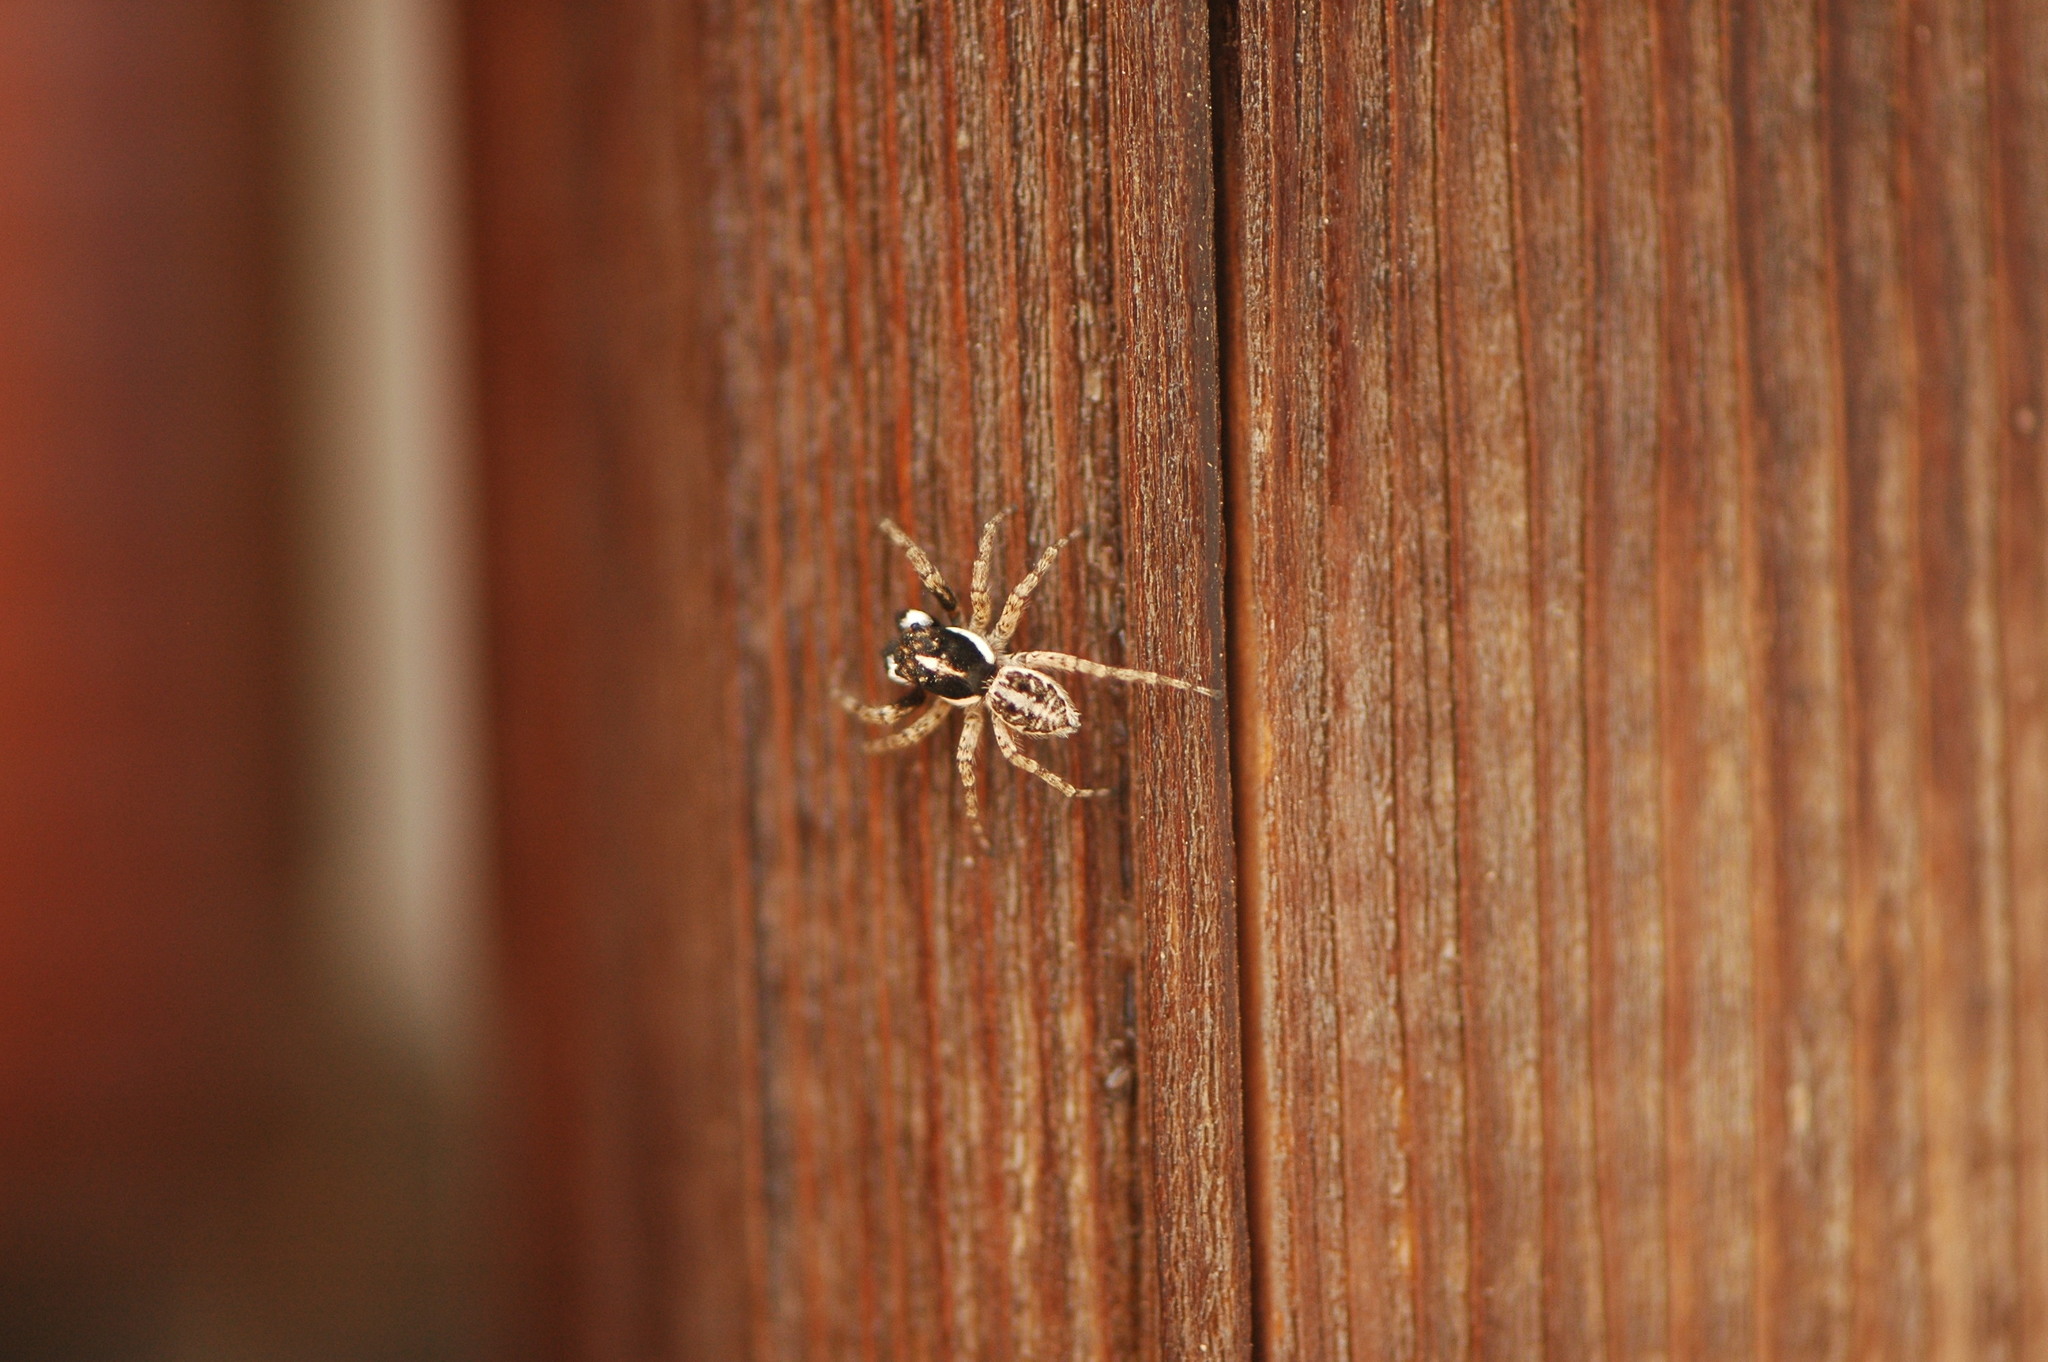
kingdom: Animalia
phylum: Arthropoda
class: Arachnida
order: Araneae
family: Salticidae
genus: Menemerus
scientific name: Menemerus semilimbatus
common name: Jumping spider
